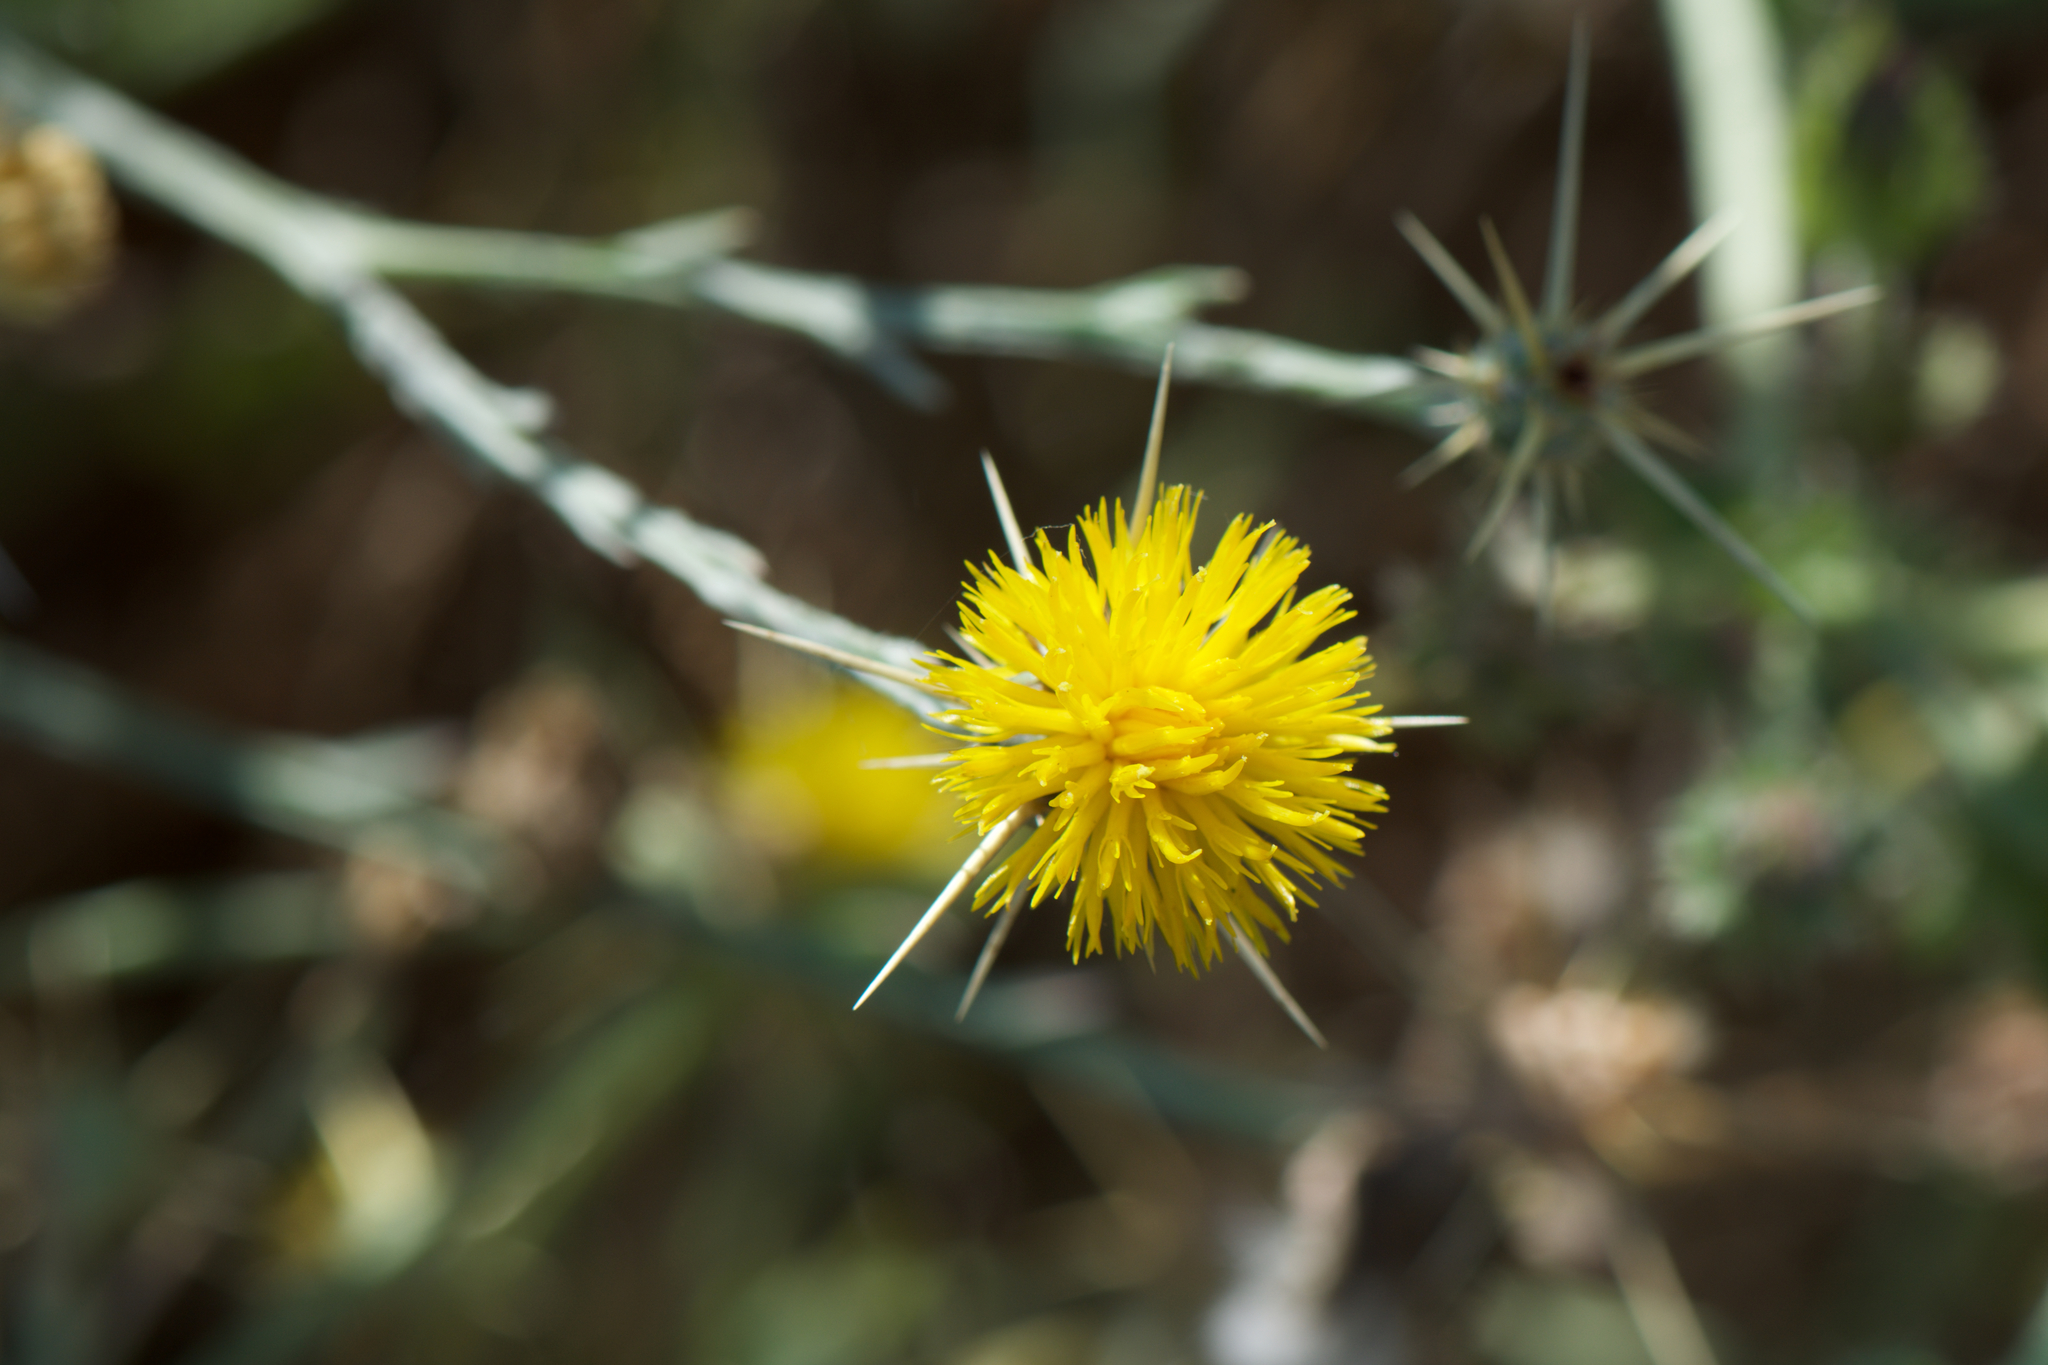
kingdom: Plantae
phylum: Tracheophyta
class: Magnoliopsida
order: Asterales
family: Asteraceae
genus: Centaurea
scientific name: Centaurea solstitialis
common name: Yellow star-thistle
